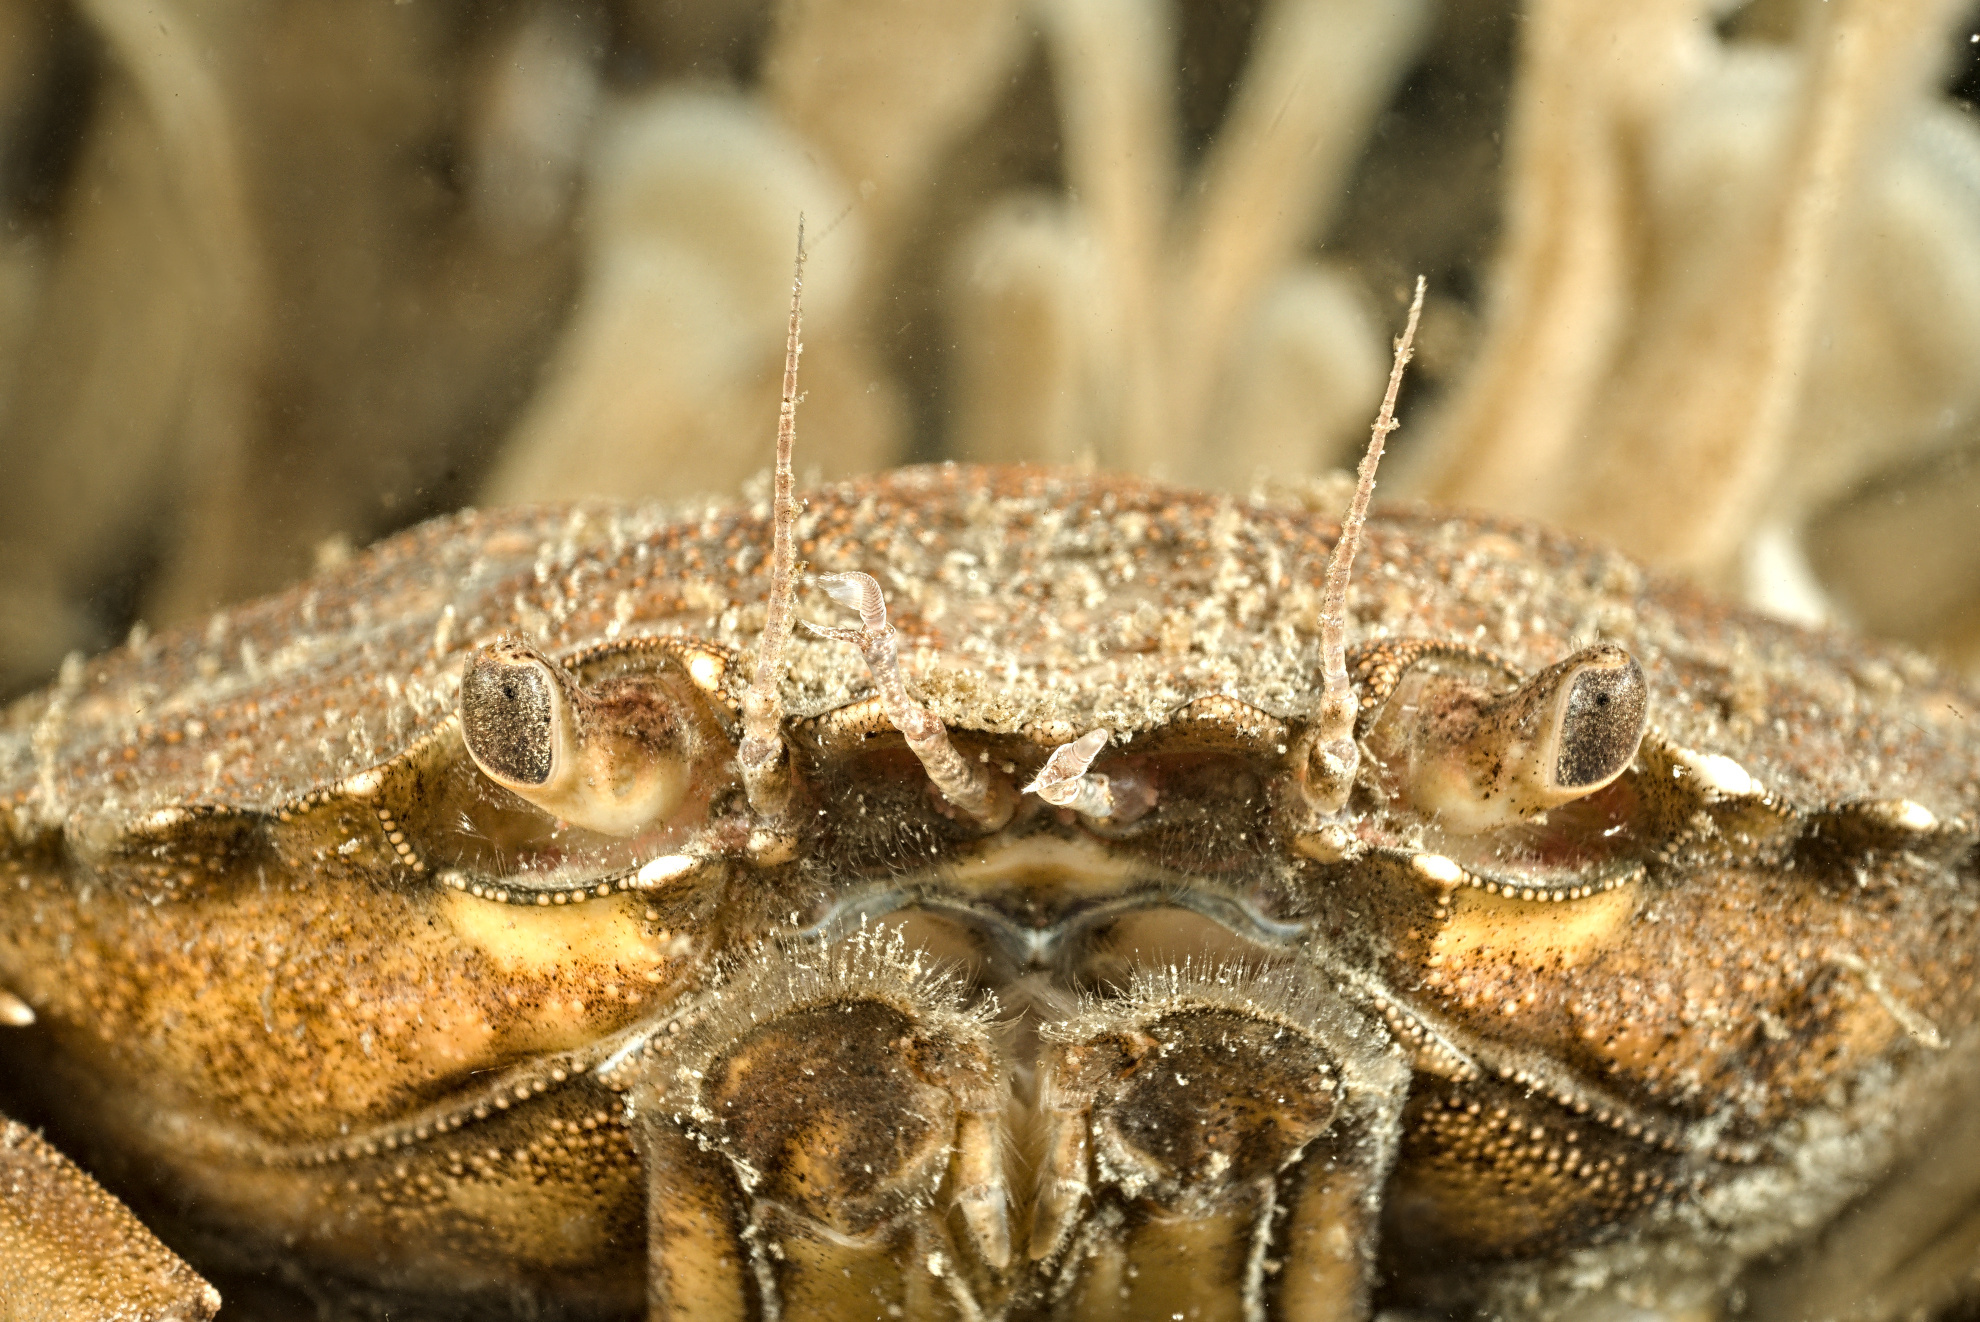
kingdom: Animalia
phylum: Arthropoda
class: Malacostraca
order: Decapoda
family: Carcinidae
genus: Carcinus
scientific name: Carcinus maenas
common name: European green crab
